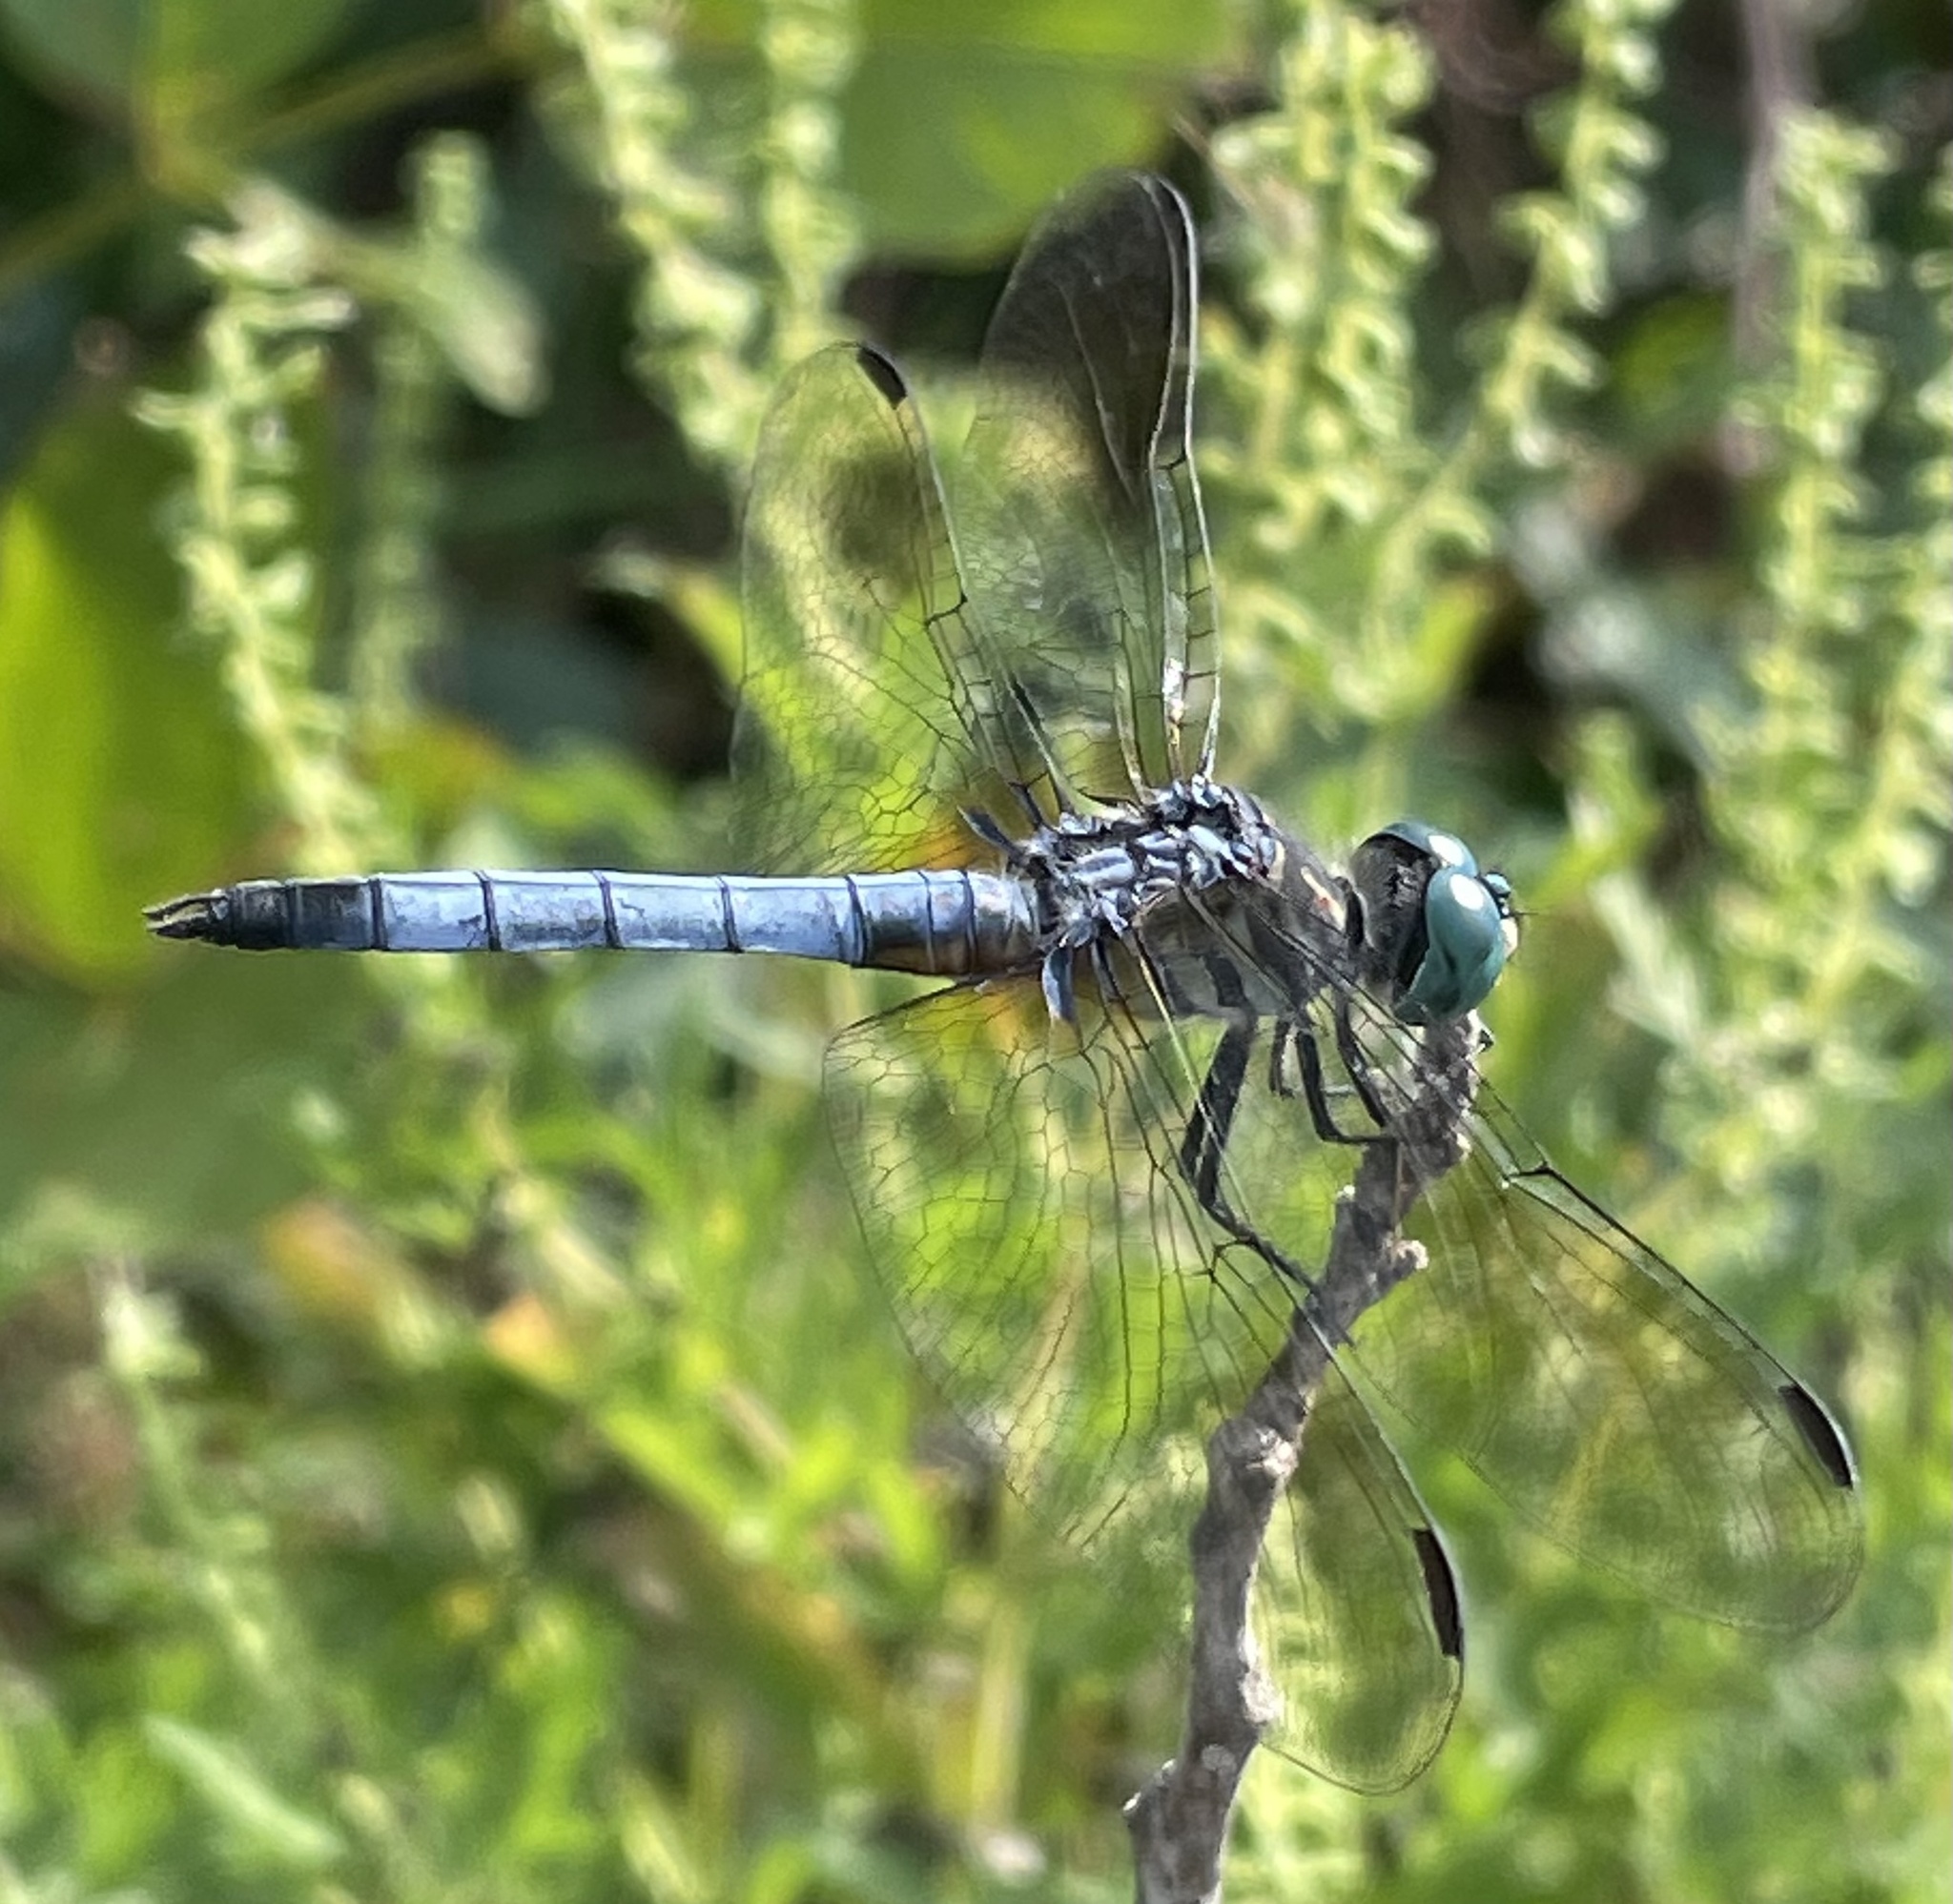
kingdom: Animalia
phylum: Arthropoda
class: Insecta
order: Odonata
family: Libellulidae
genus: Pachydiplax
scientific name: Pachydiplax longipennis
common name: Blue dasher
